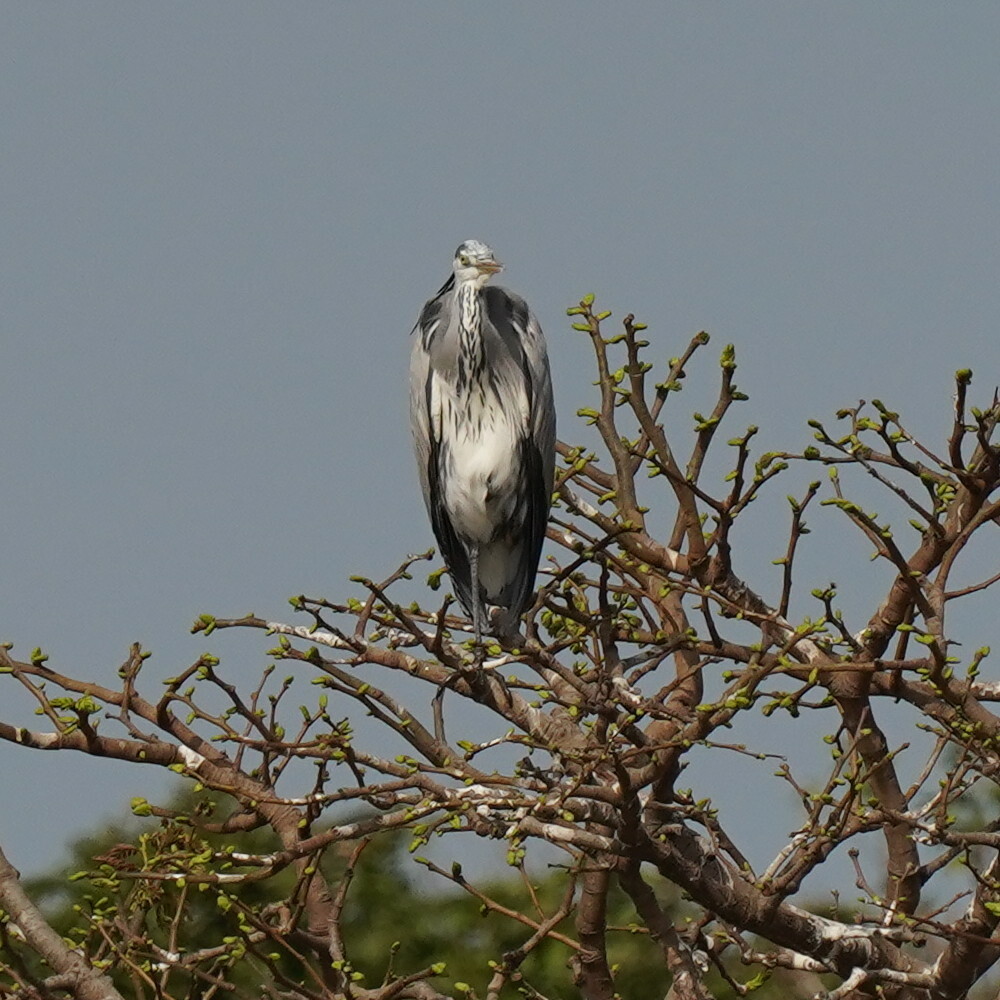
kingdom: Animalia
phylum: Chordata
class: Aves
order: Pelecaniformes
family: Ardeidae
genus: Ardea
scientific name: Ardea cinerea
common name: Grey heron
